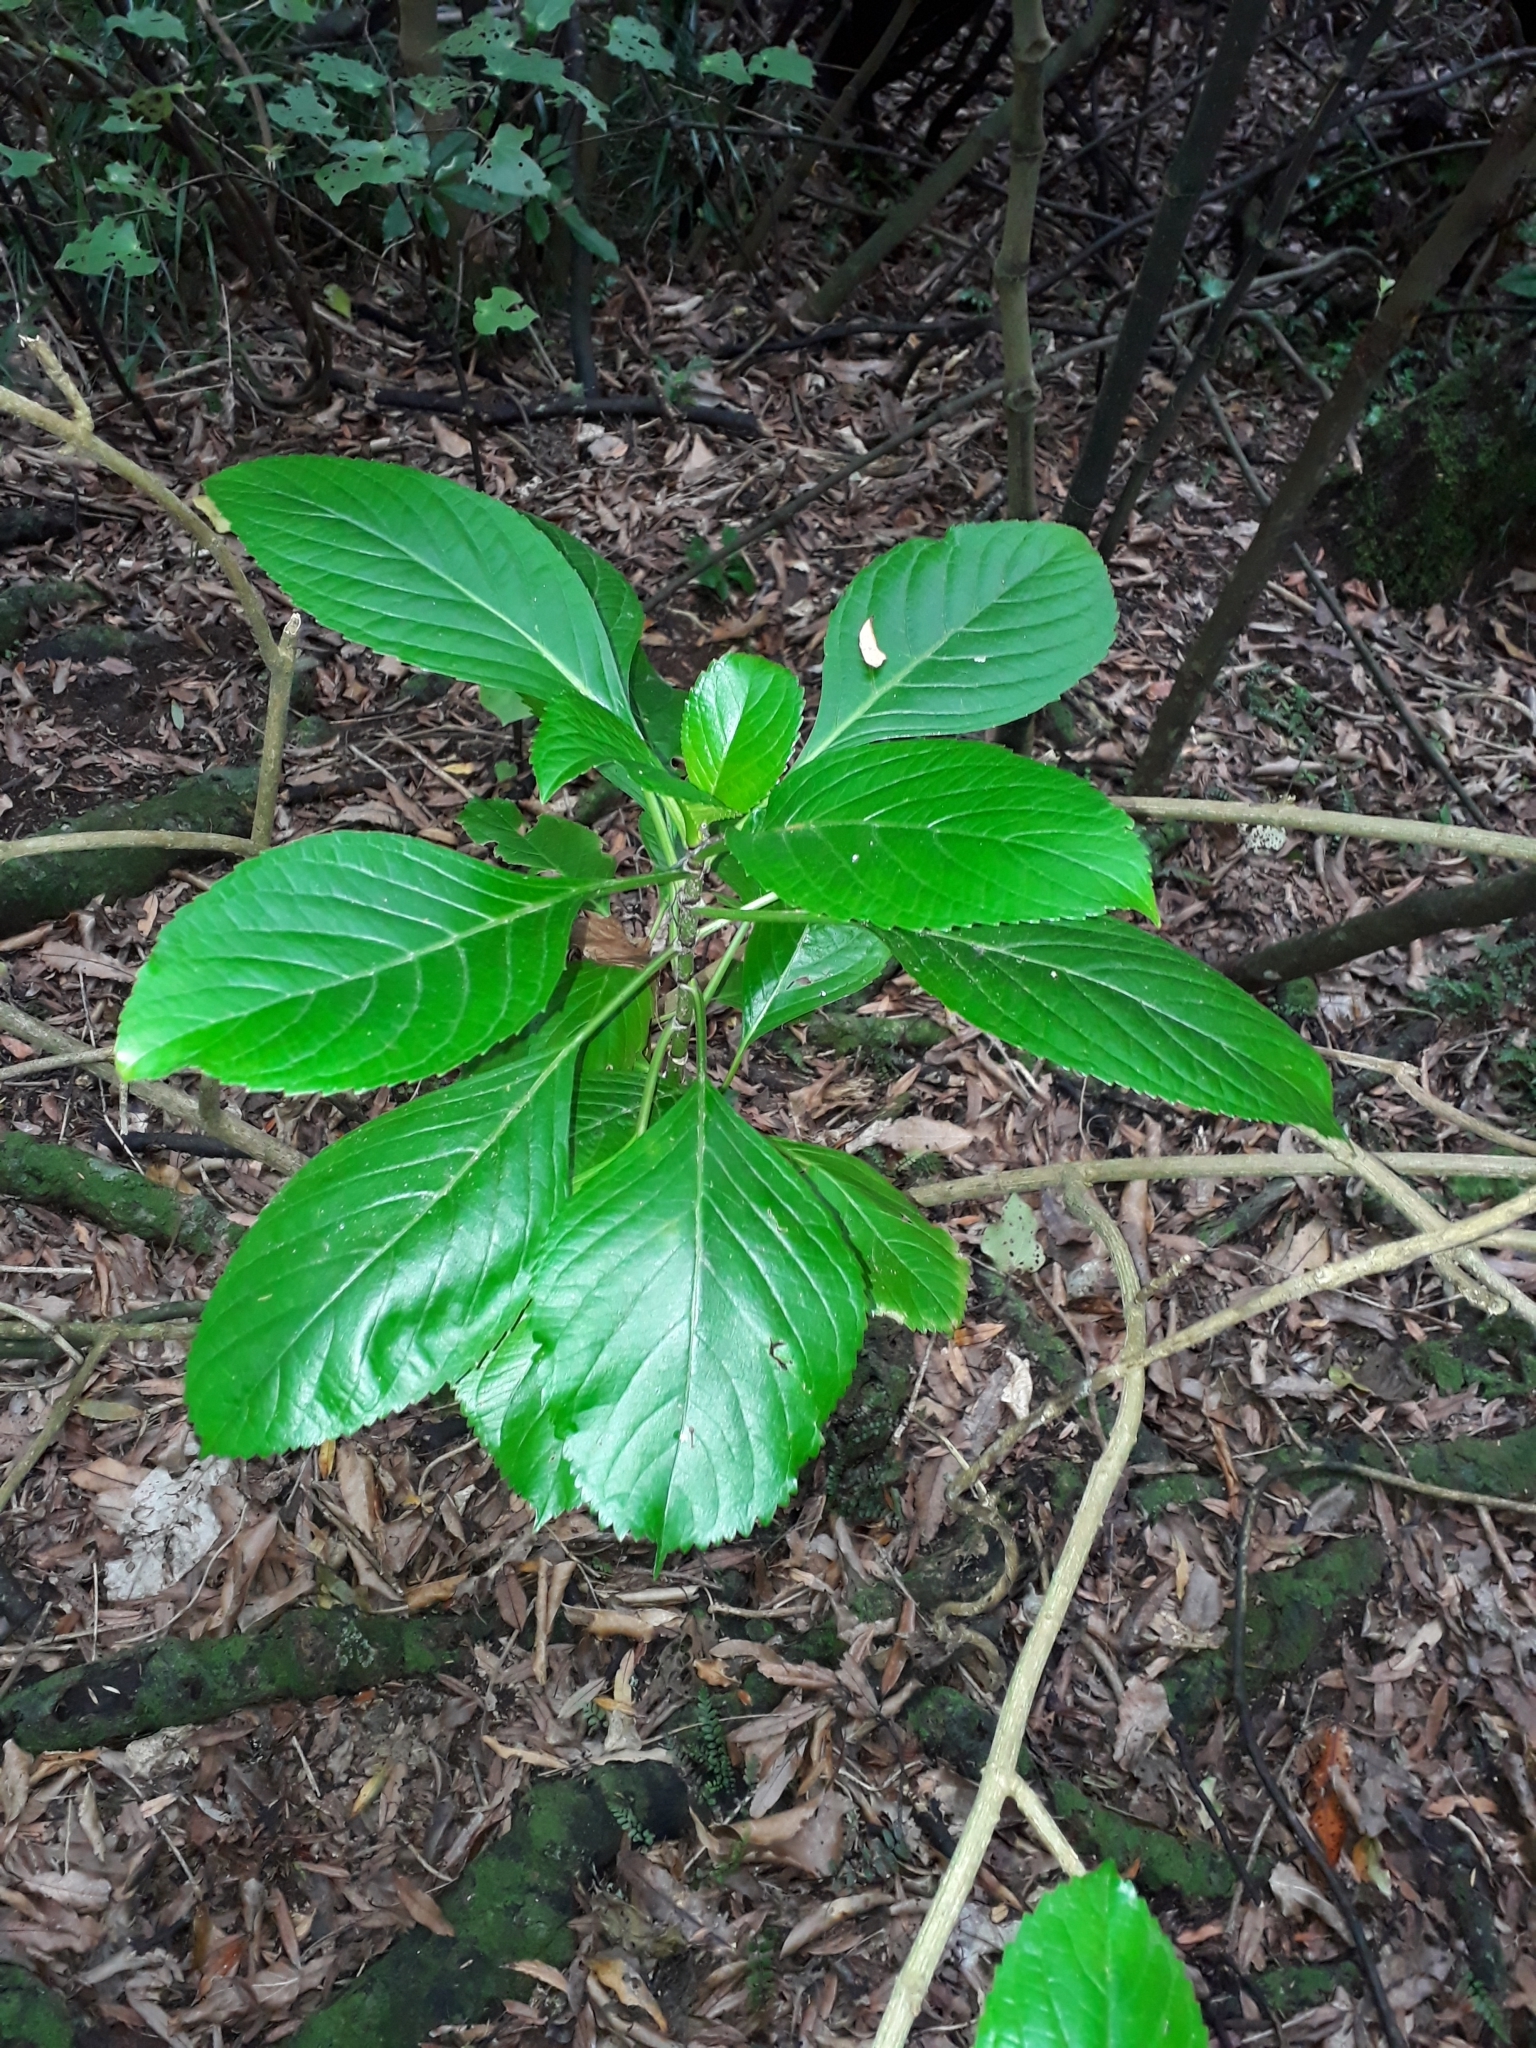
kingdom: Plantae
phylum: Tracheophyta
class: Magnoliopsida
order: Cornales
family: Hydrangeaceae
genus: Hydrangea
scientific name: Hydrangea macrophylla
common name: Hydrangea
